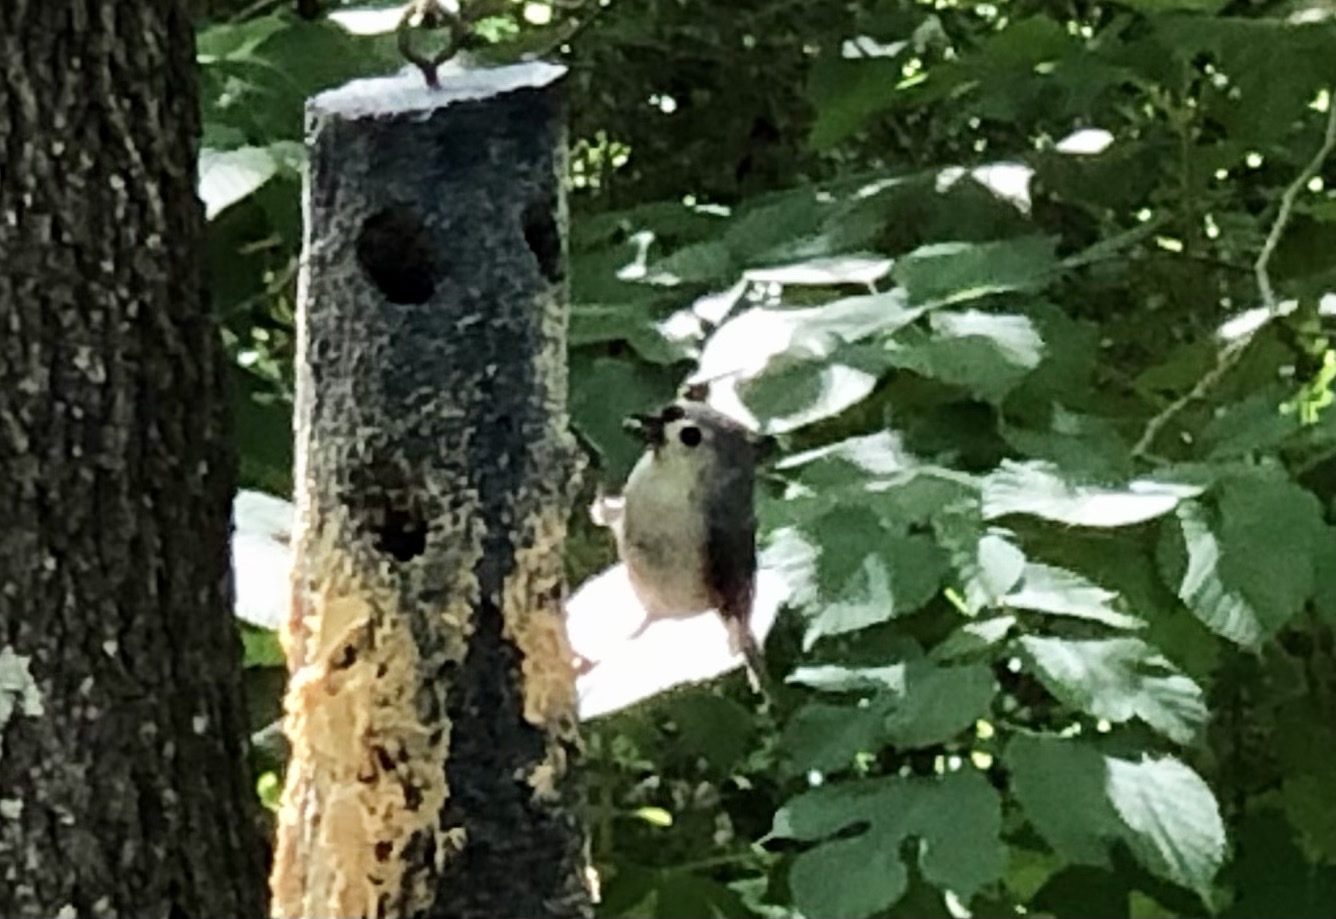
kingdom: Animalia
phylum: Chordata
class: Aves
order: Passeriformes
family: Paridae
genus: Baeolophus
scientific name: Baeolophus bicolor
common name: Tufted titmouse
